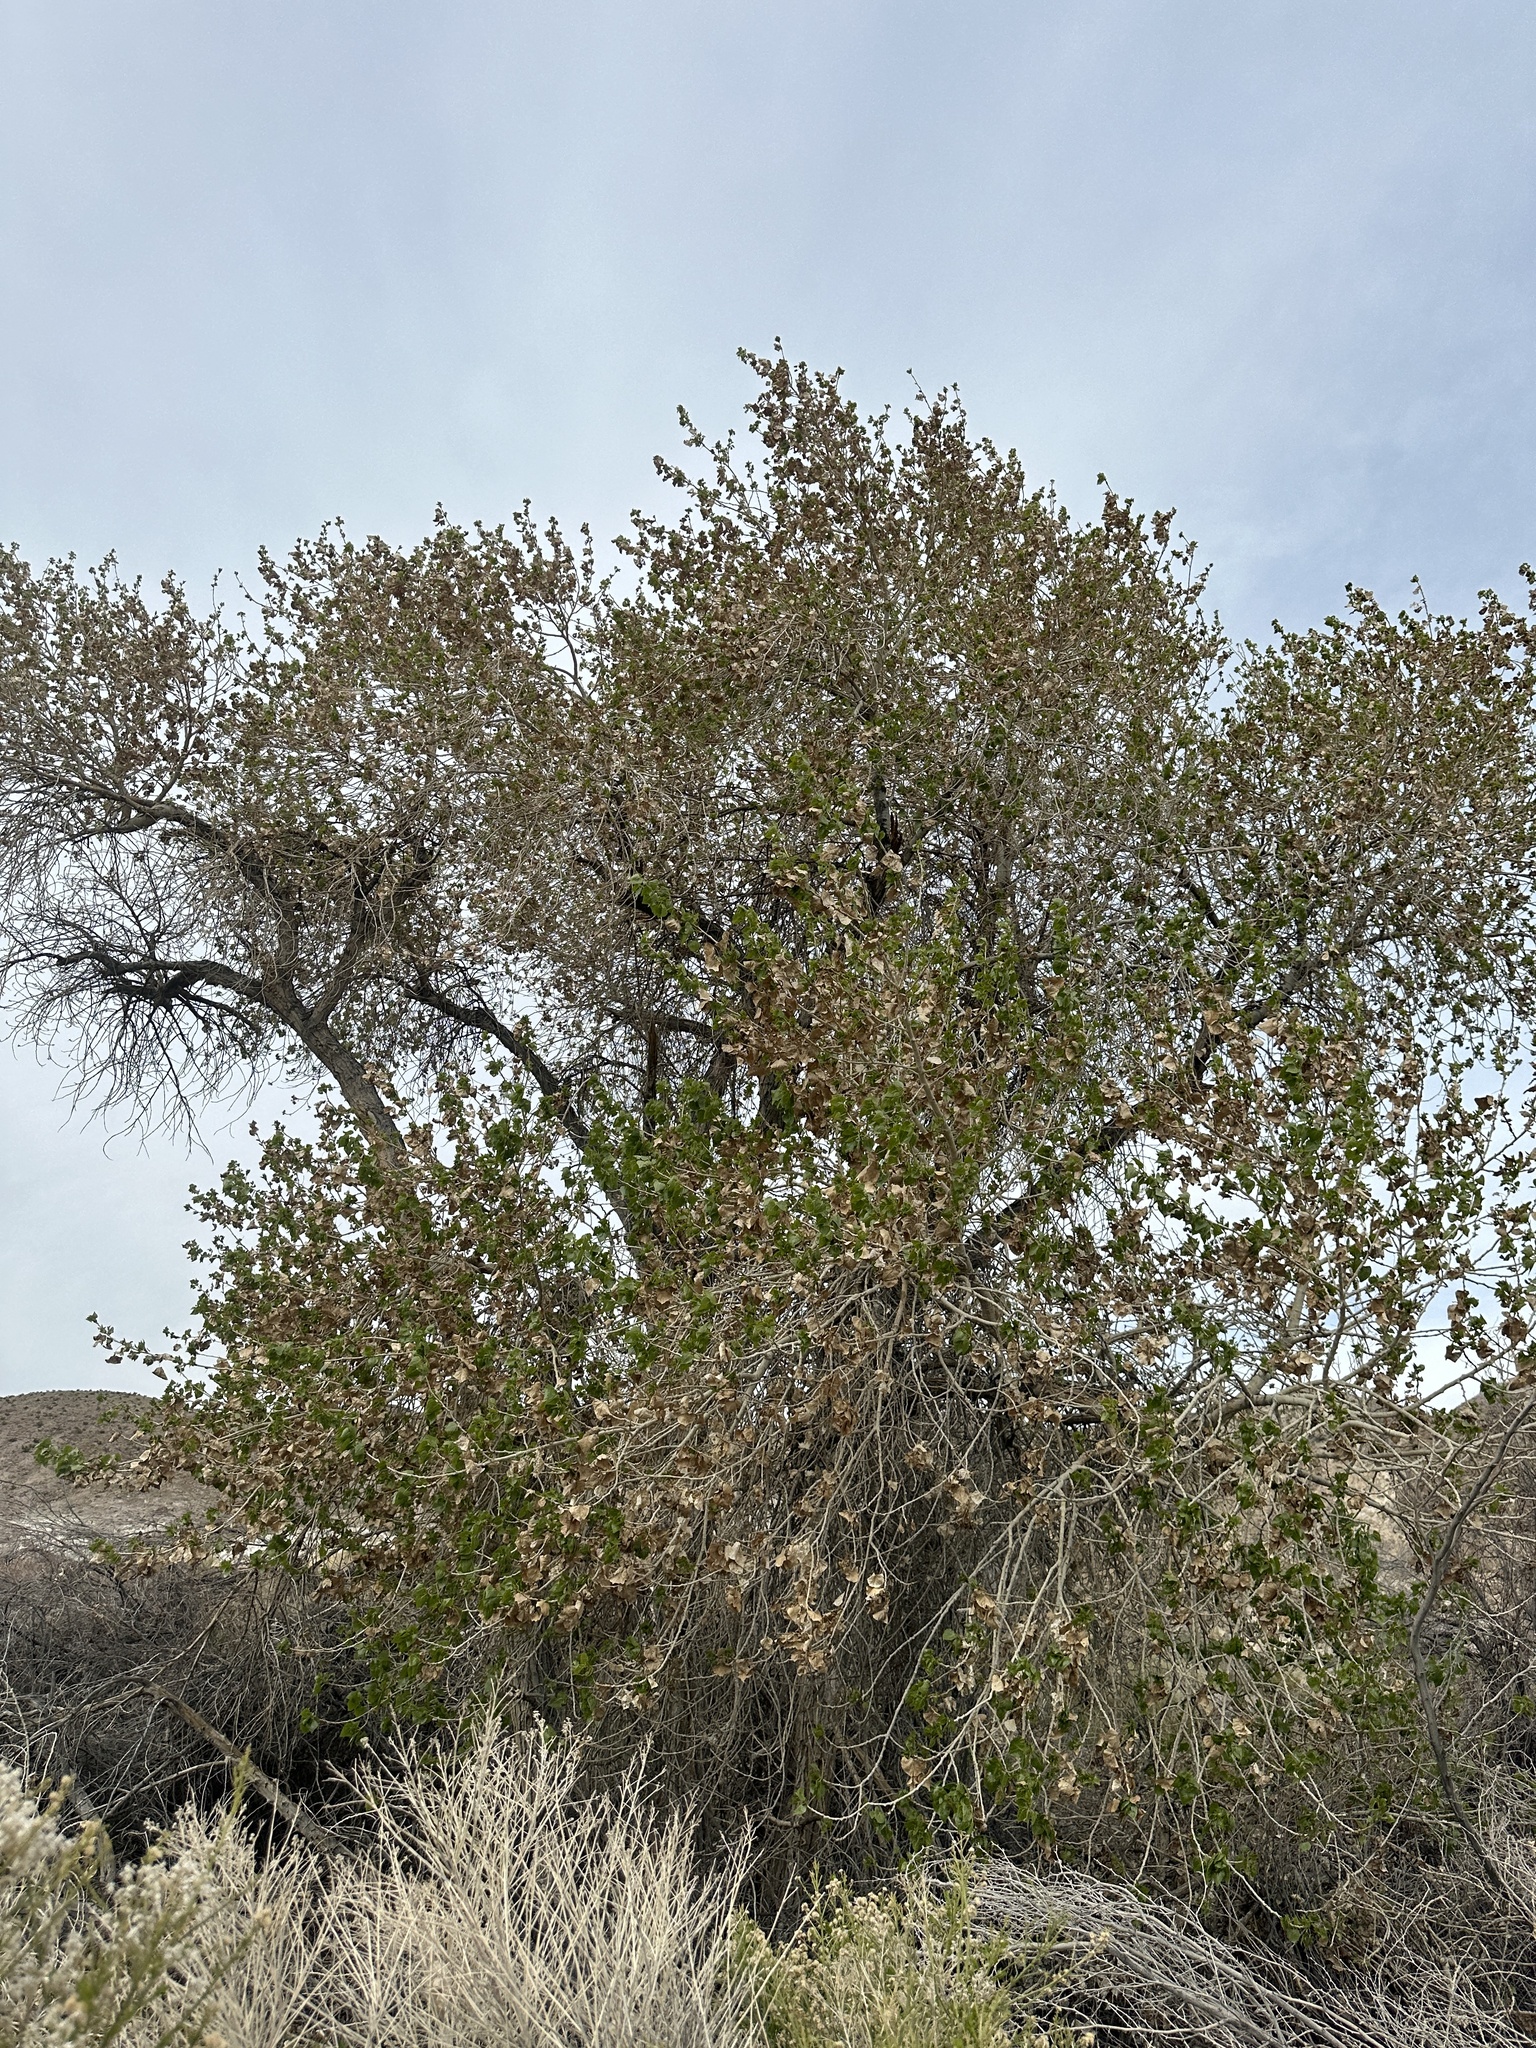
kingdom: Plantae
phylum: Tracheophyta
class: Magnoliopsida
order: Malpighiales
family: Salicaceae
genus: Populus
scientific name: Populus fremontii
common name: Fremont's cottonwood
